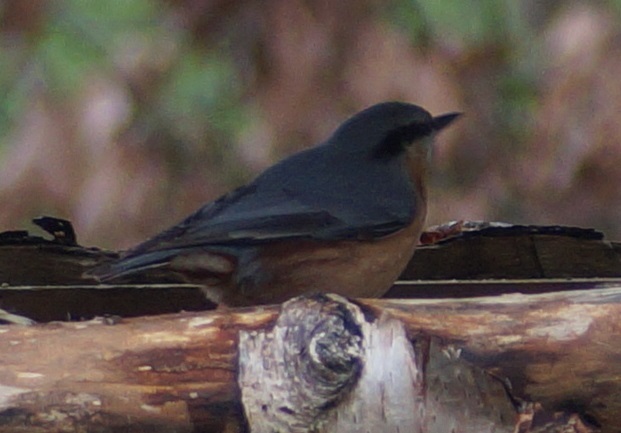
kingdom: Animalia
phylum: Chordata
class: Aves
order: Passeriformes
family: Sittidae
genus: Sitta
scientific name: Sitta europaea
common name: Eurasian nuthatch
